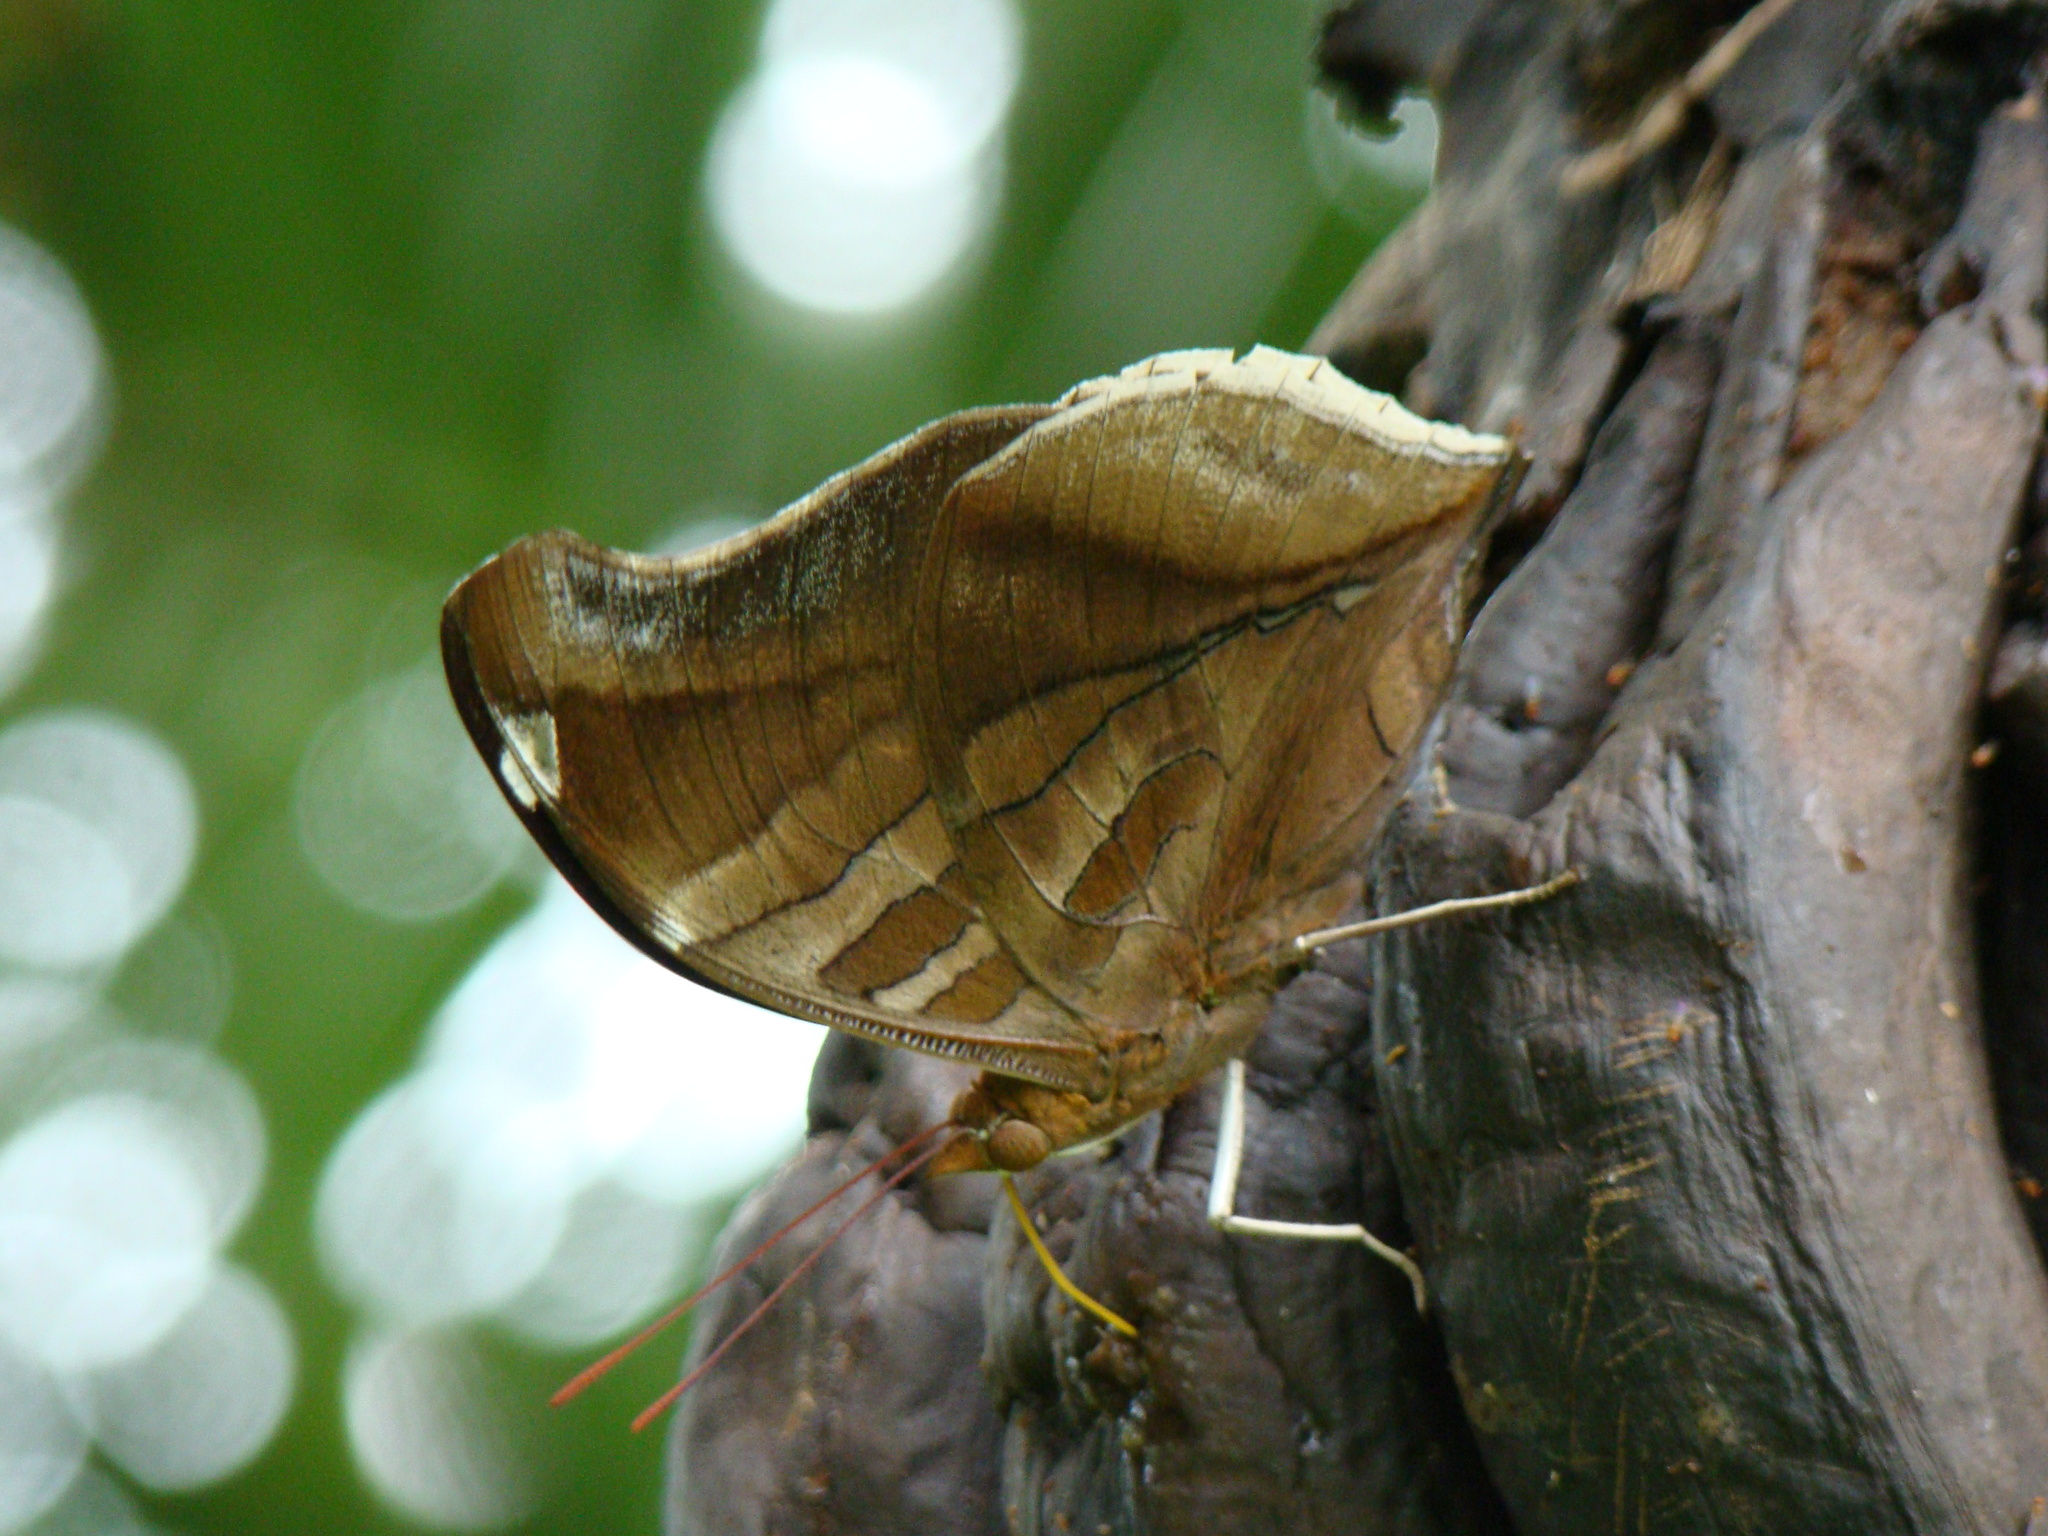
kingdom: Animalia
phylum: Arthropoda
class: Insecta
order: Lepidoptera
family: Nymphalidae
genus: Historis
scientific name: Historis odius
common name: Orion cecropian
